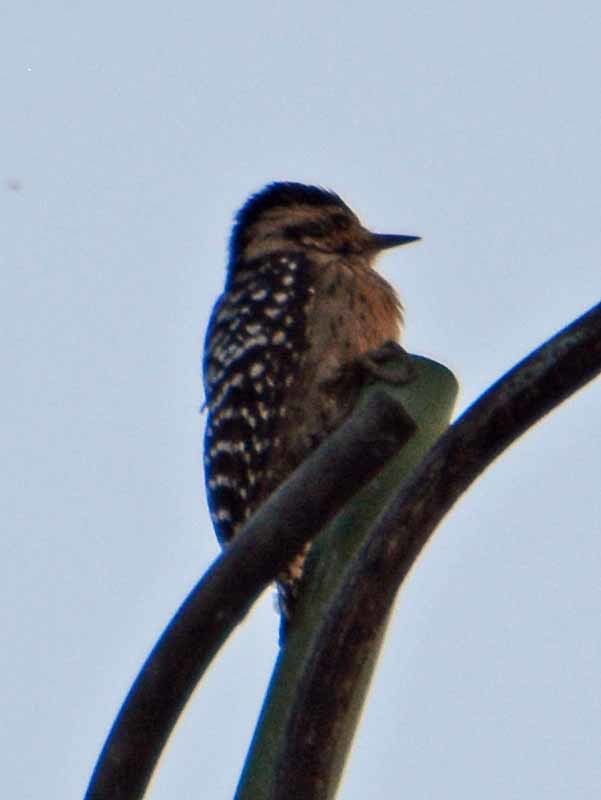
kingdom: Animalia
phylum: Chordata
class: Aves
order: Piciformes
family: Picidae
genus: Dryobates
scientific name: Dryobates scalaris
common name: Ladder-backed woodpecker
